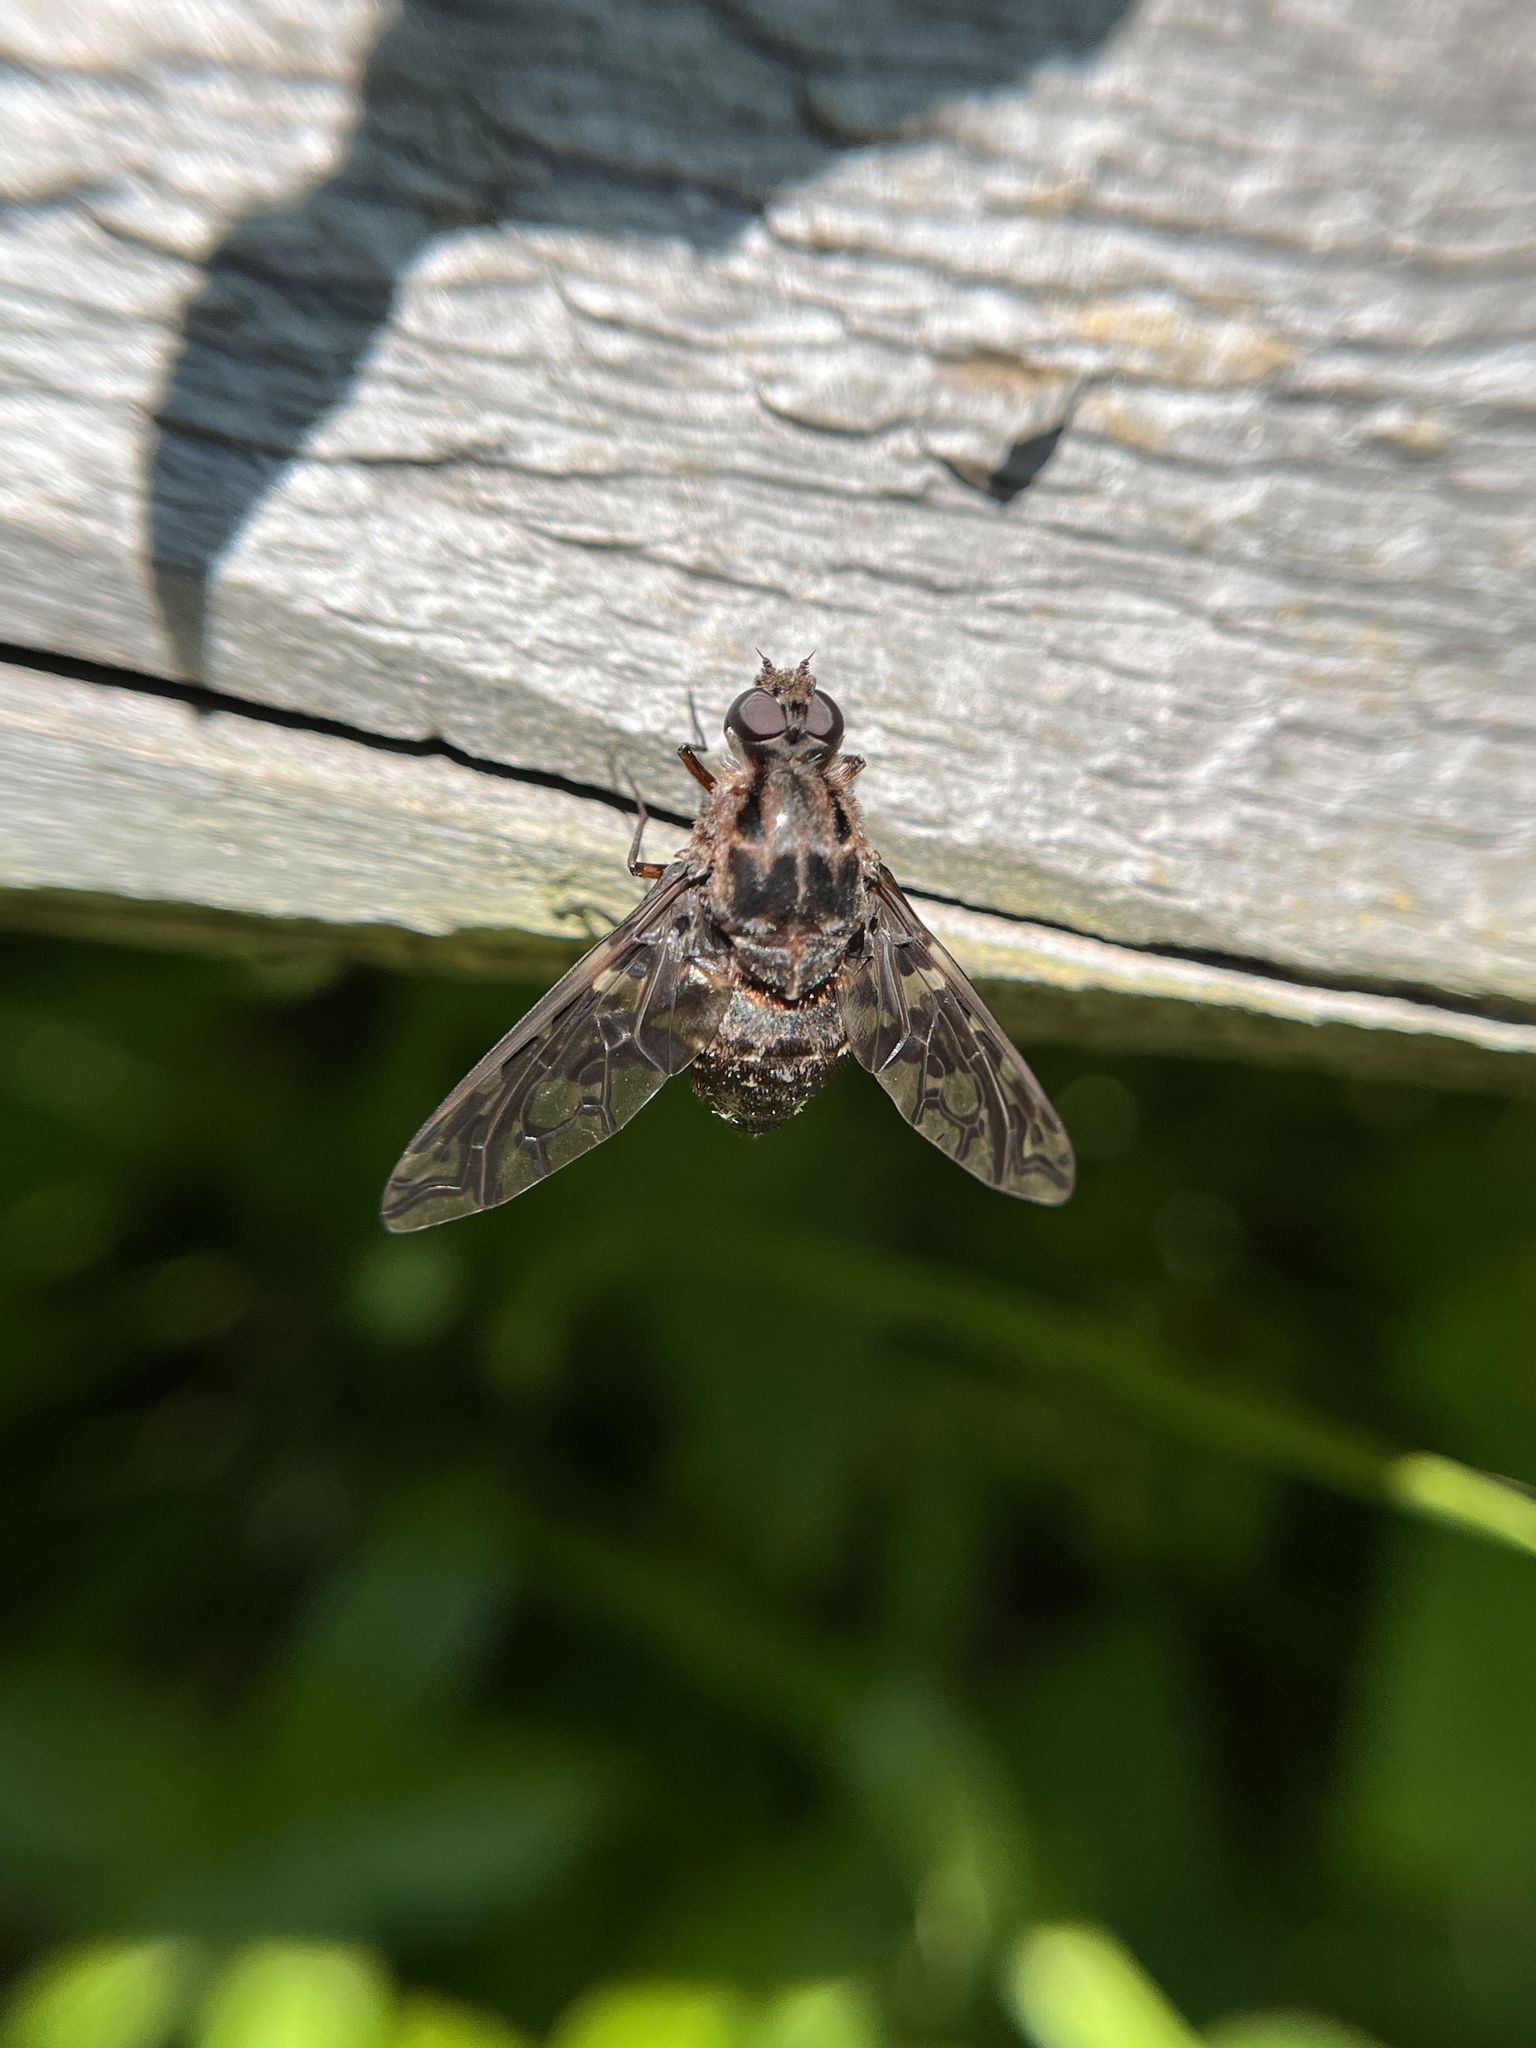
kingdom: Animalia
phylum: Arthropoda
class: Insecta
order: Diptera
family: Bombyliidae
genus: Xenox
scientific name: Xenox tigrinus
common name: Tiger bee fly
